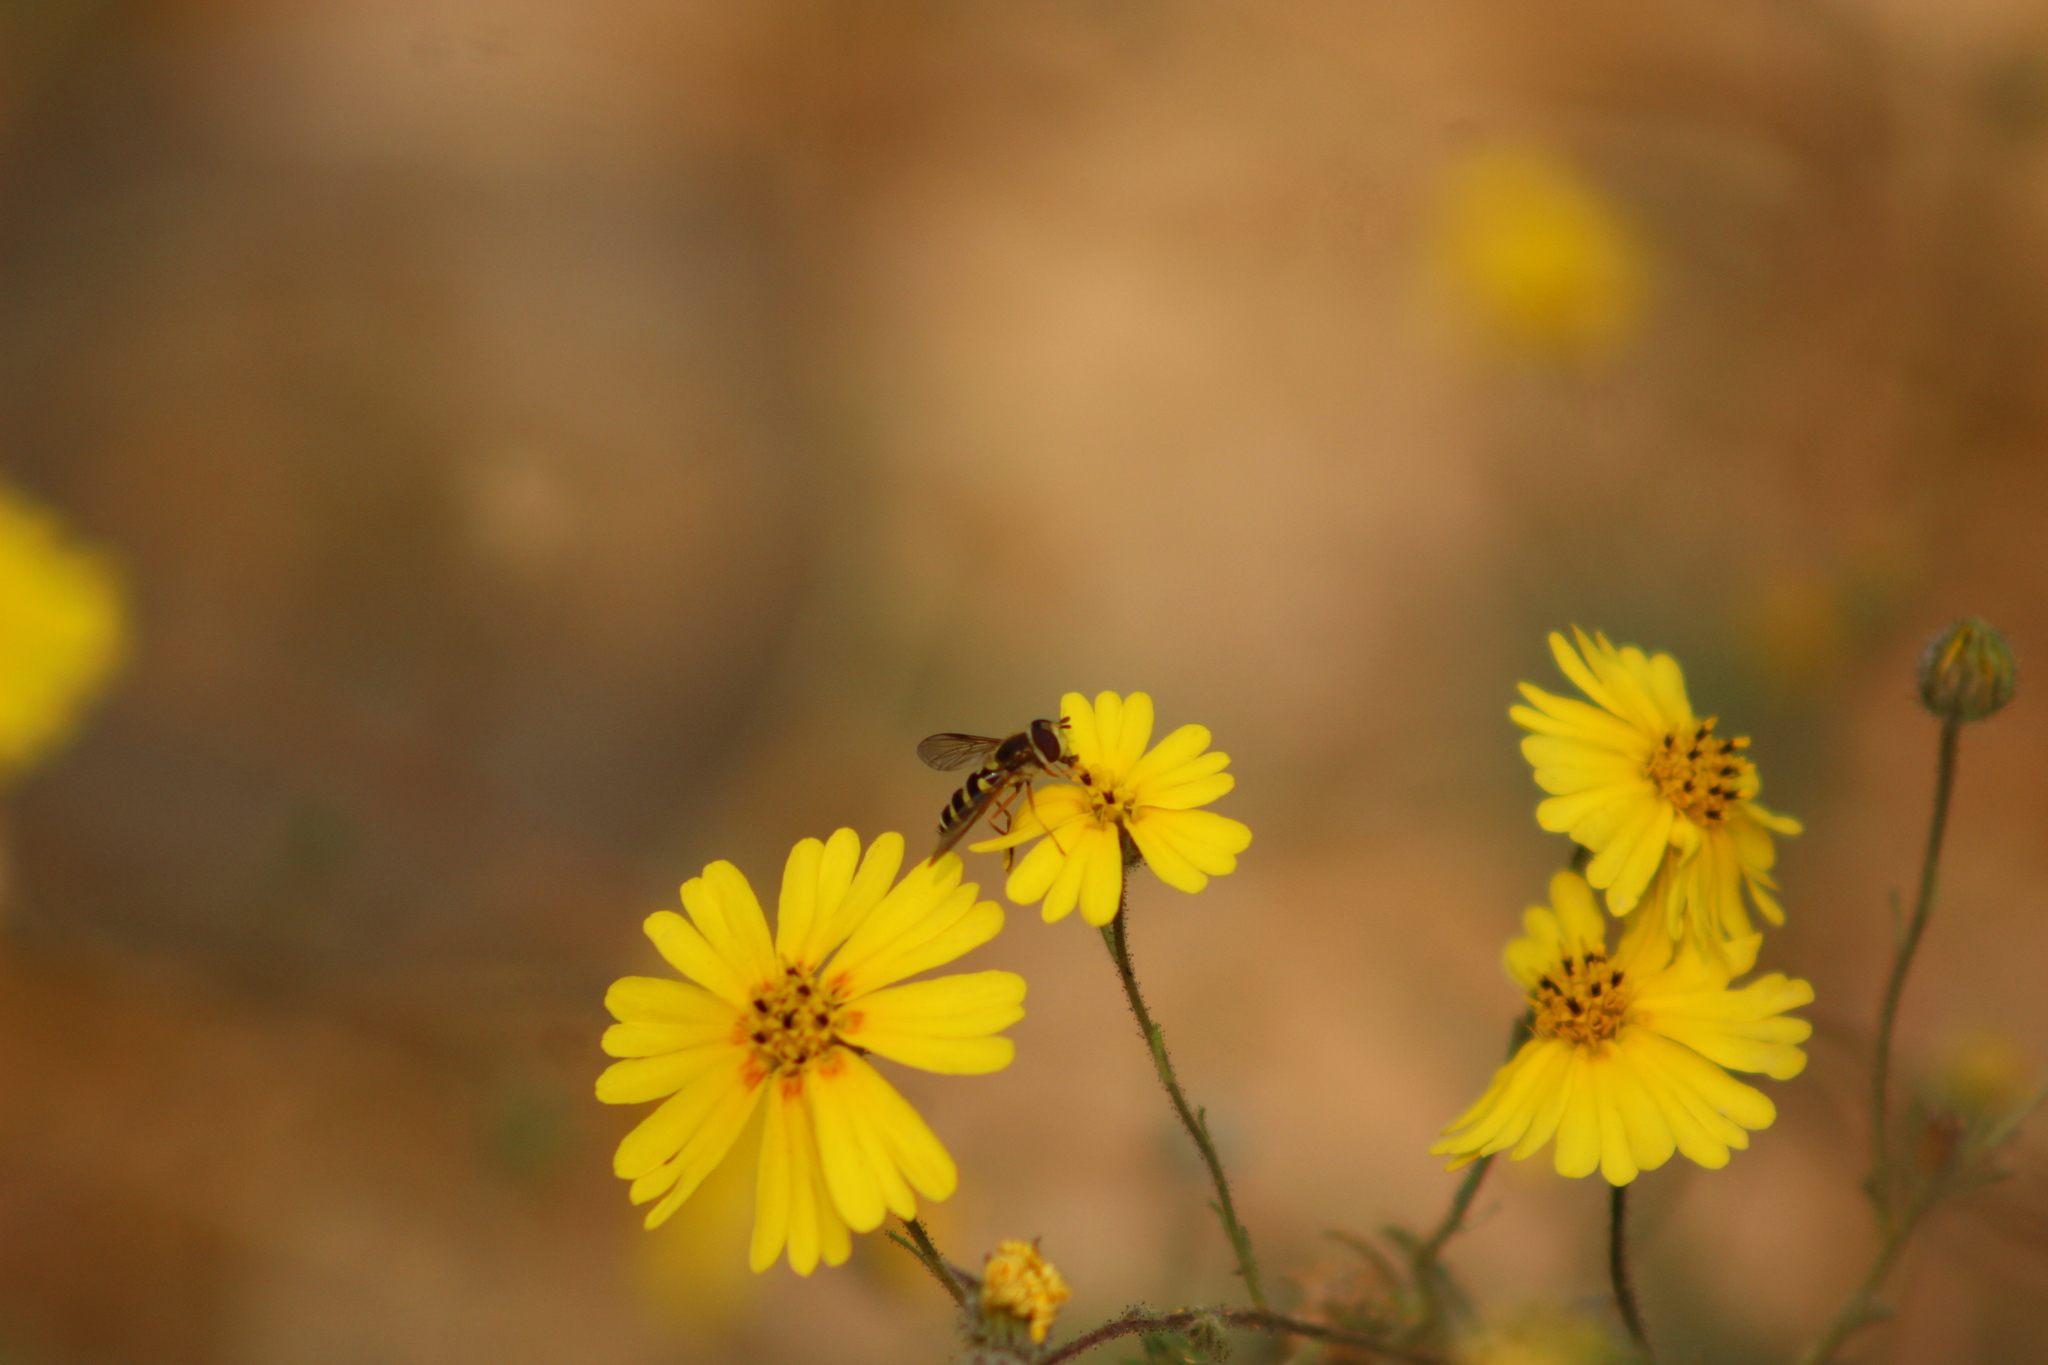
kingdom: Animalia
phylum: Arthropoda
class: Insecta
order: Diptera
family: Syrphidae
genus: Syrphus
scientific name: Syrphus opinator
